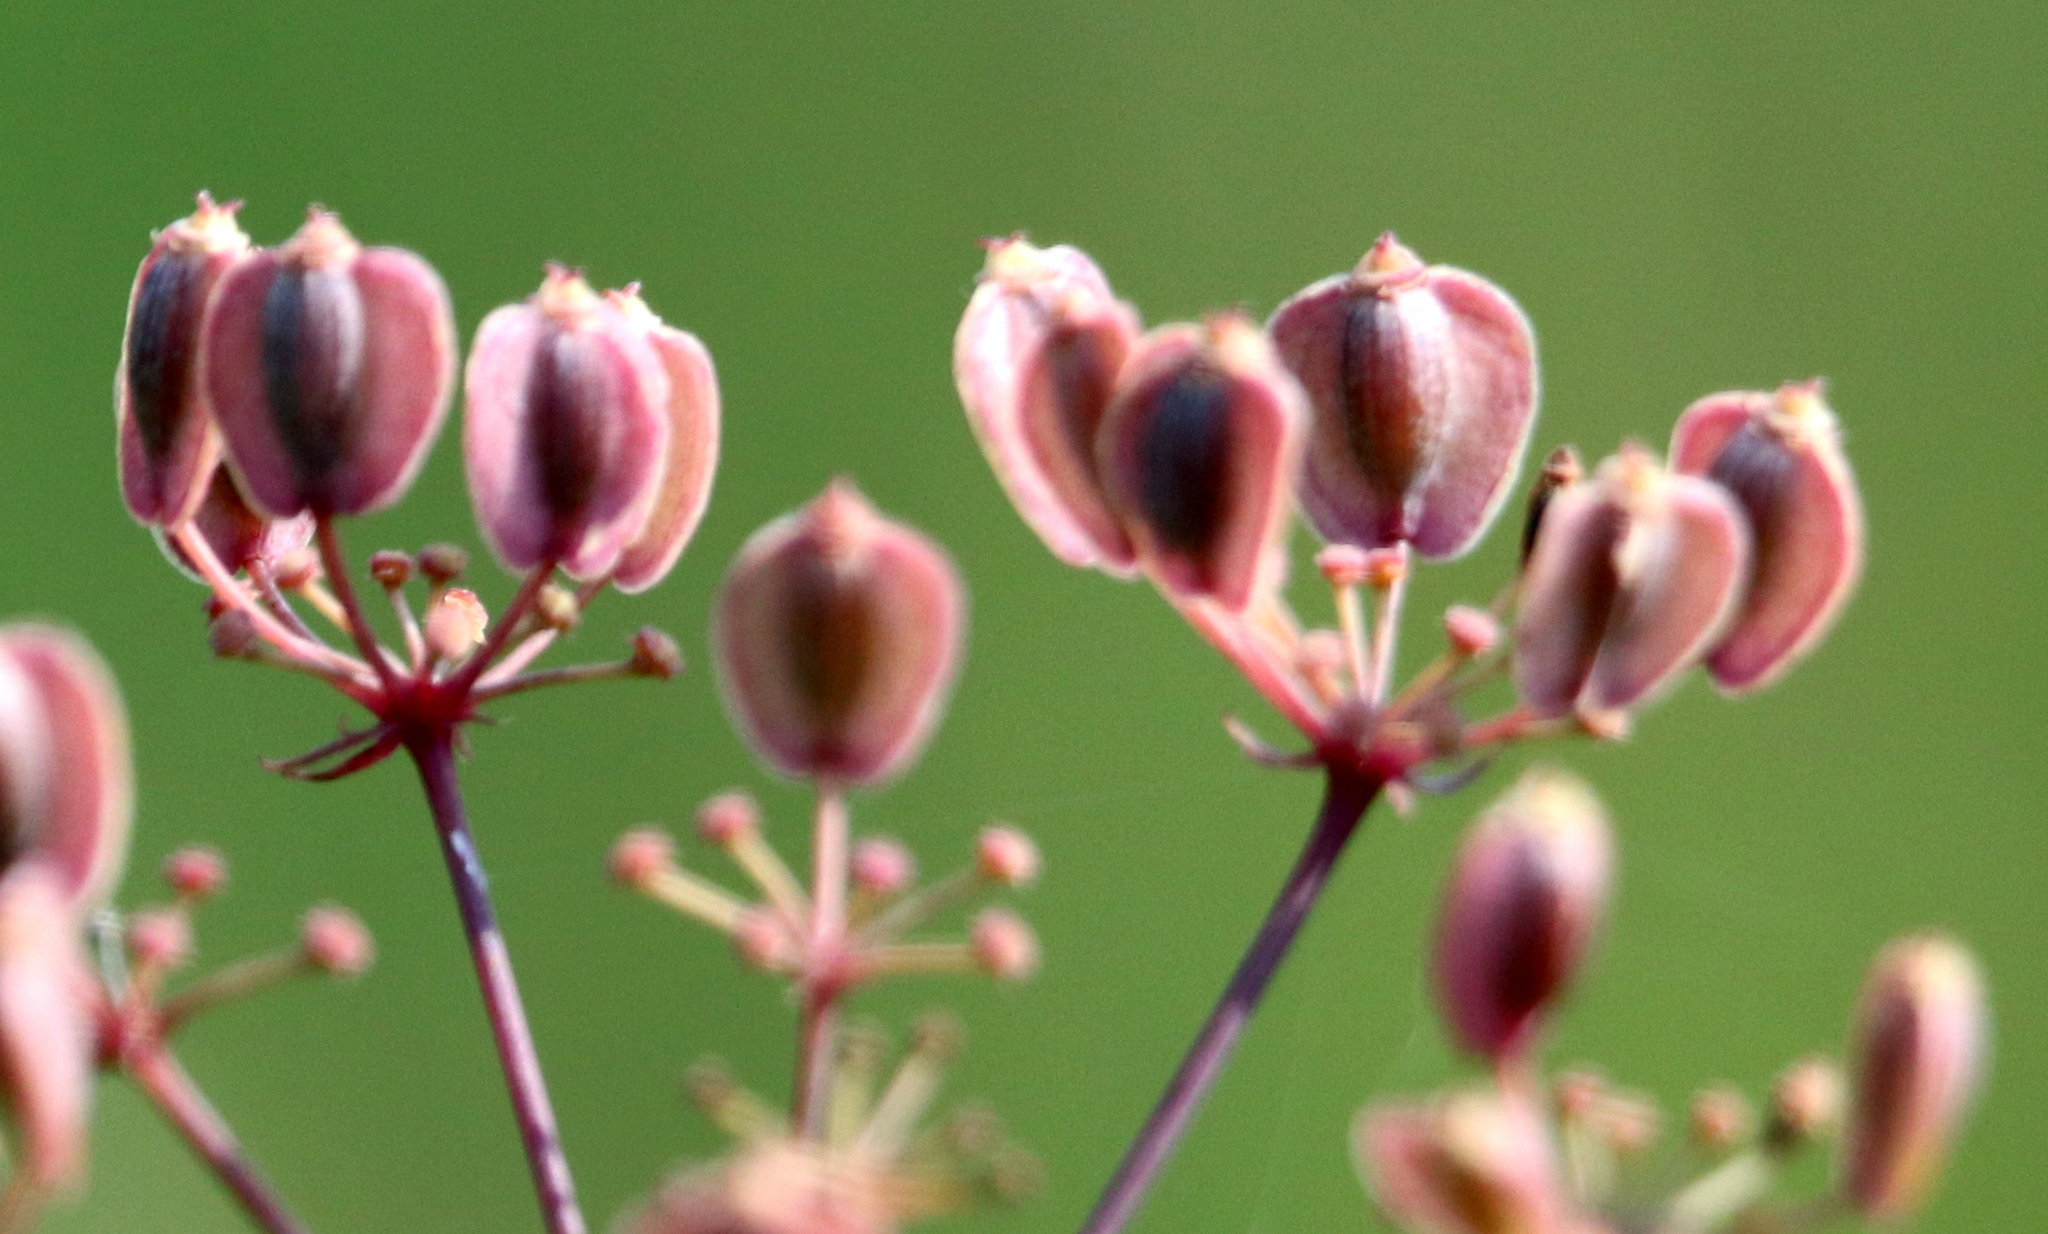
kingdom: Plantae
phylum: Tracheophyta
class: Magnoliopsida
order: Apiales
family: Apiaceae
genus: Tiedemannia
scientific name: Tiedemannia filiformis
